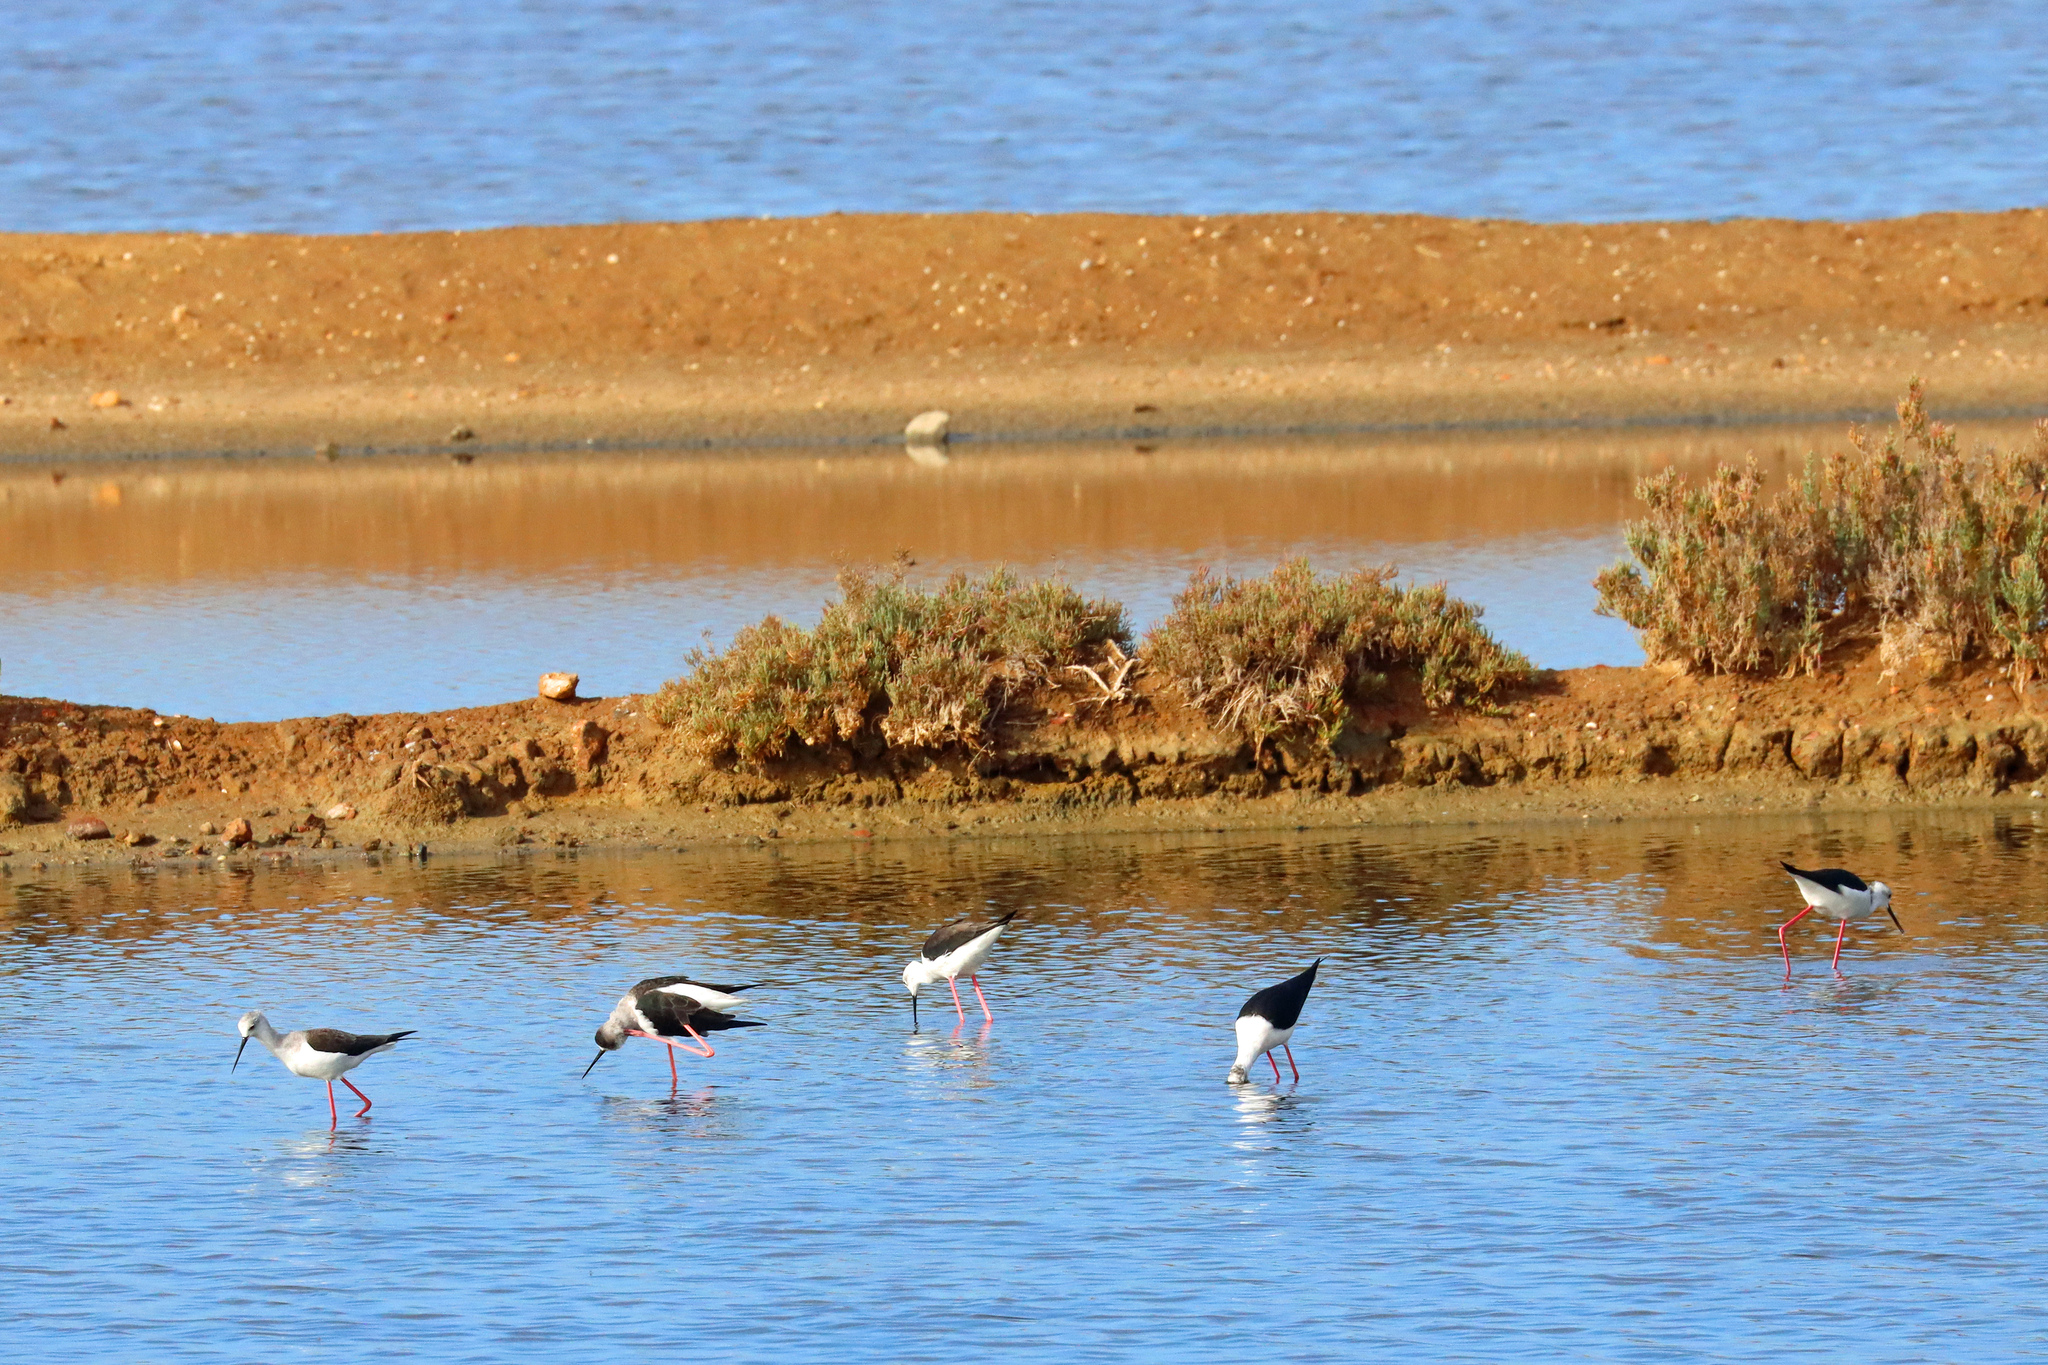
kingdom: Animalia
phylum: Chordata
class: Aves
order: Charadriiformes
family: Recurvirostridae
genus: Himantopus
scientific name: Himantopus himantopus
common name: Black-winged stilt
